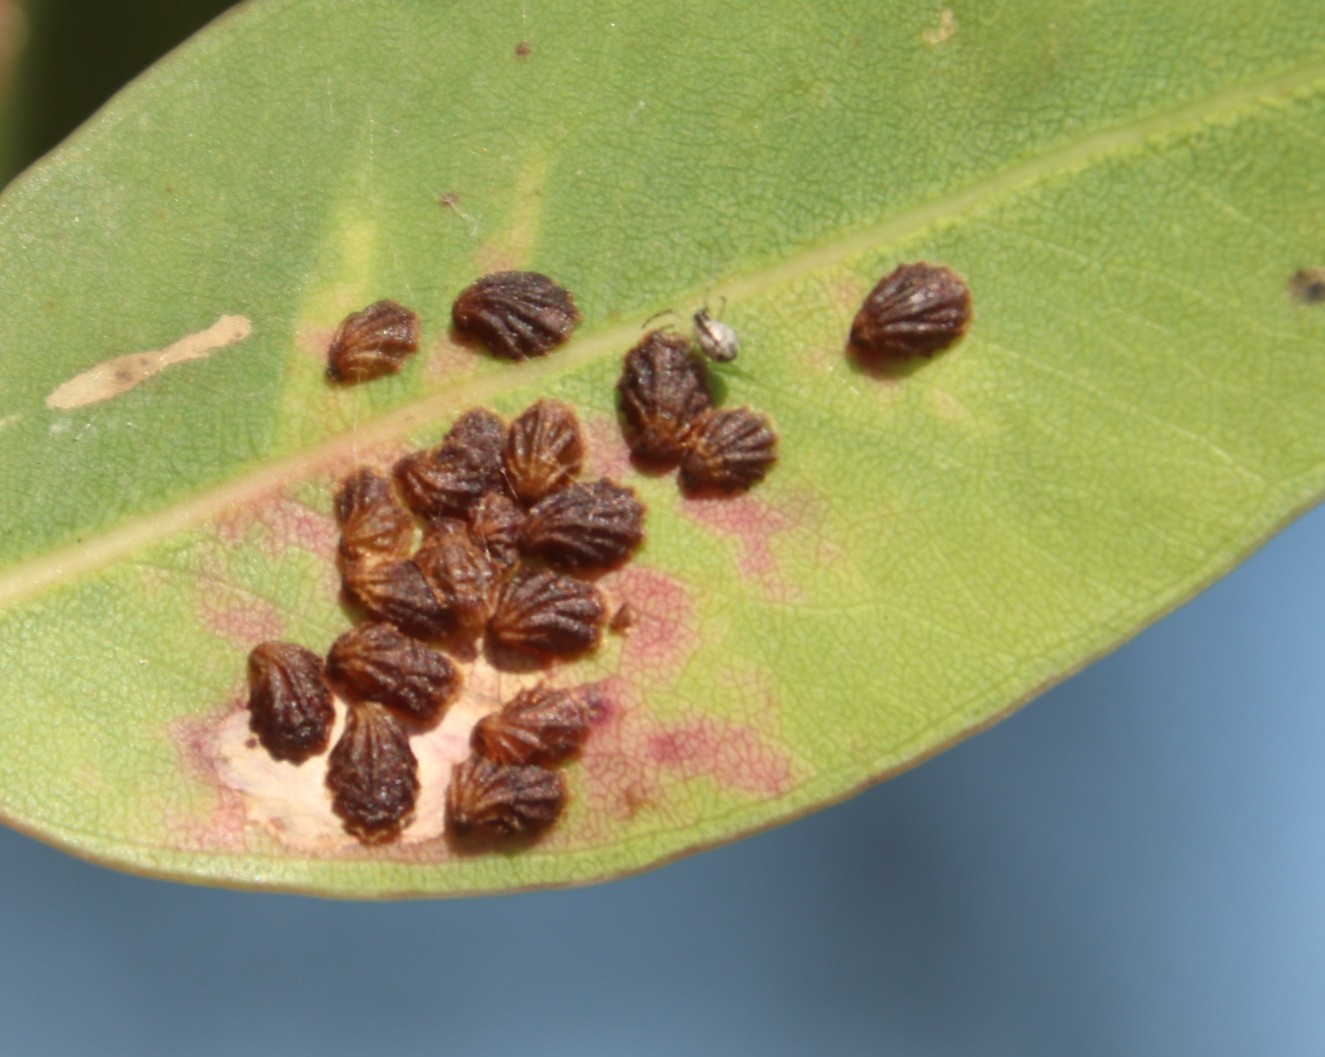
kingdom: Animalia
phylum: Arthropoda
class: Insecta
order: Hemiptera
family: Aphalaridae
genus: Spondyliaspis
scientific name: Spondyliaspis plicatuloides
